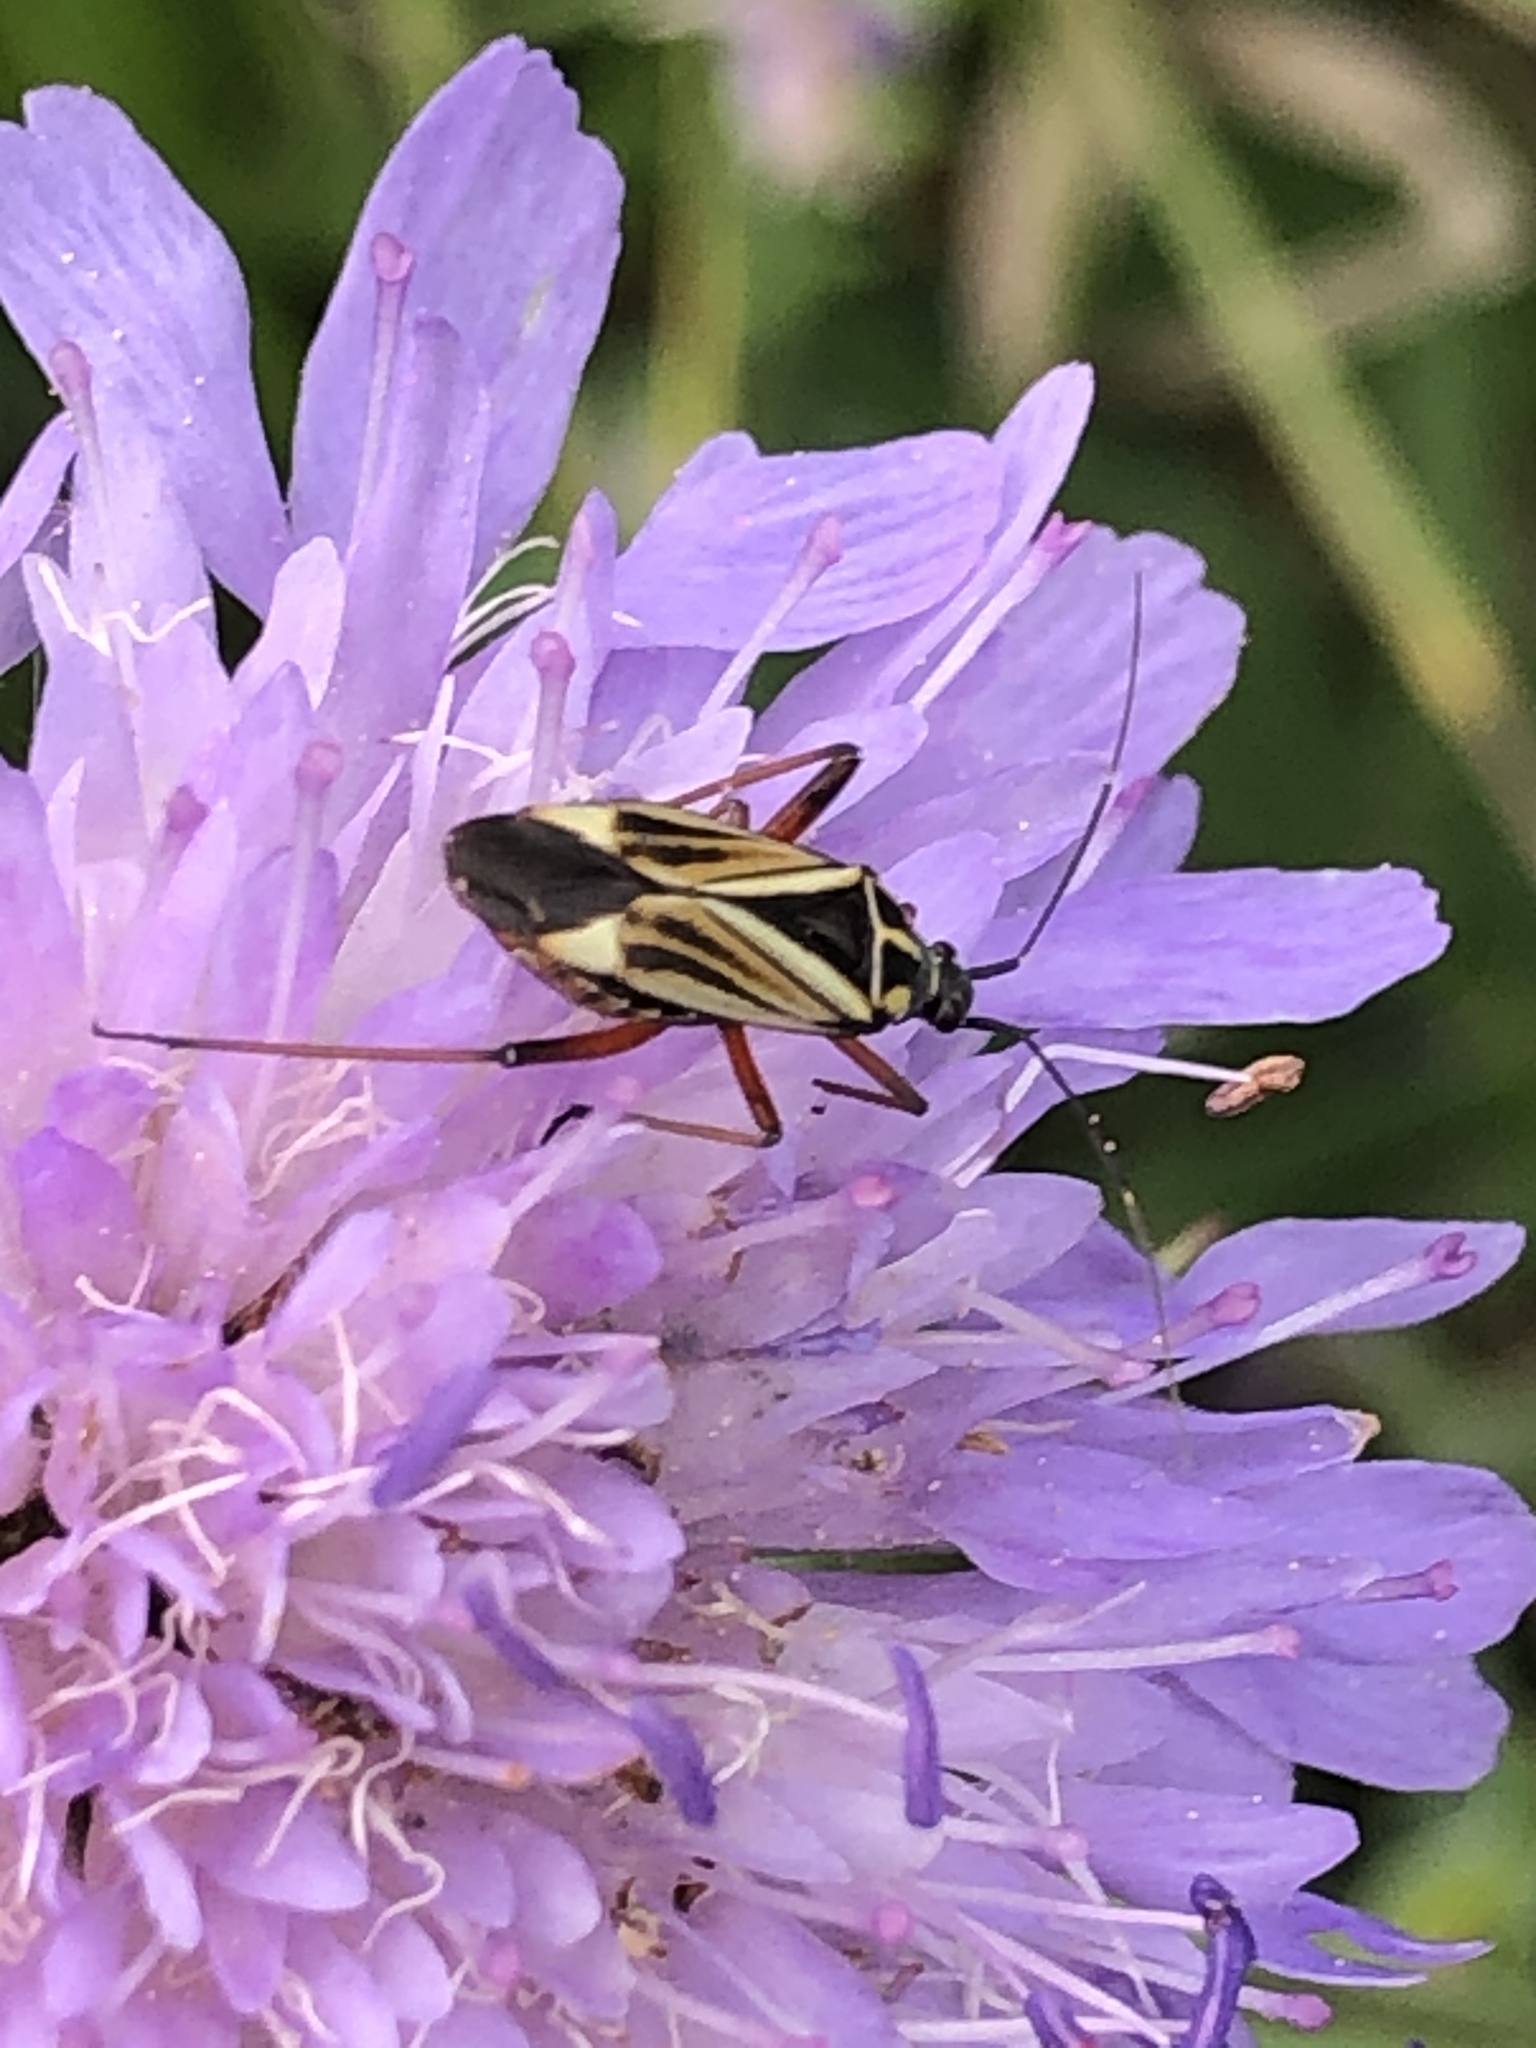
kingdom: Animalia
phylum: Arthropoda
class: Insecta
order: Hemiptera
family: Miridae
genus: Hadrodemus
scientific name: Hadrodemus m-flavum
